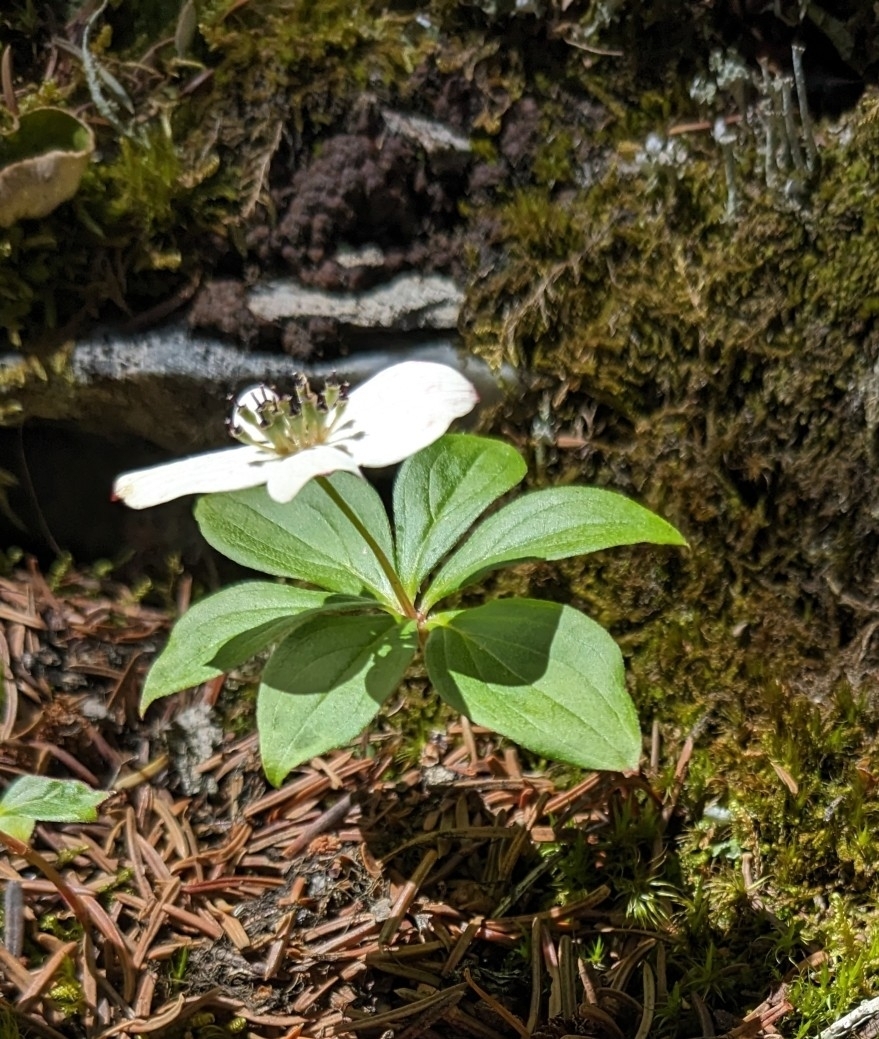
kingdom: Plantae
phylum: Tracheophyta
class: Magnoliopsida
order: Cornales
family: Cornaceae
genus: Cornus
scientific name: Cornus canadensis
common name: Creeping dogwood
